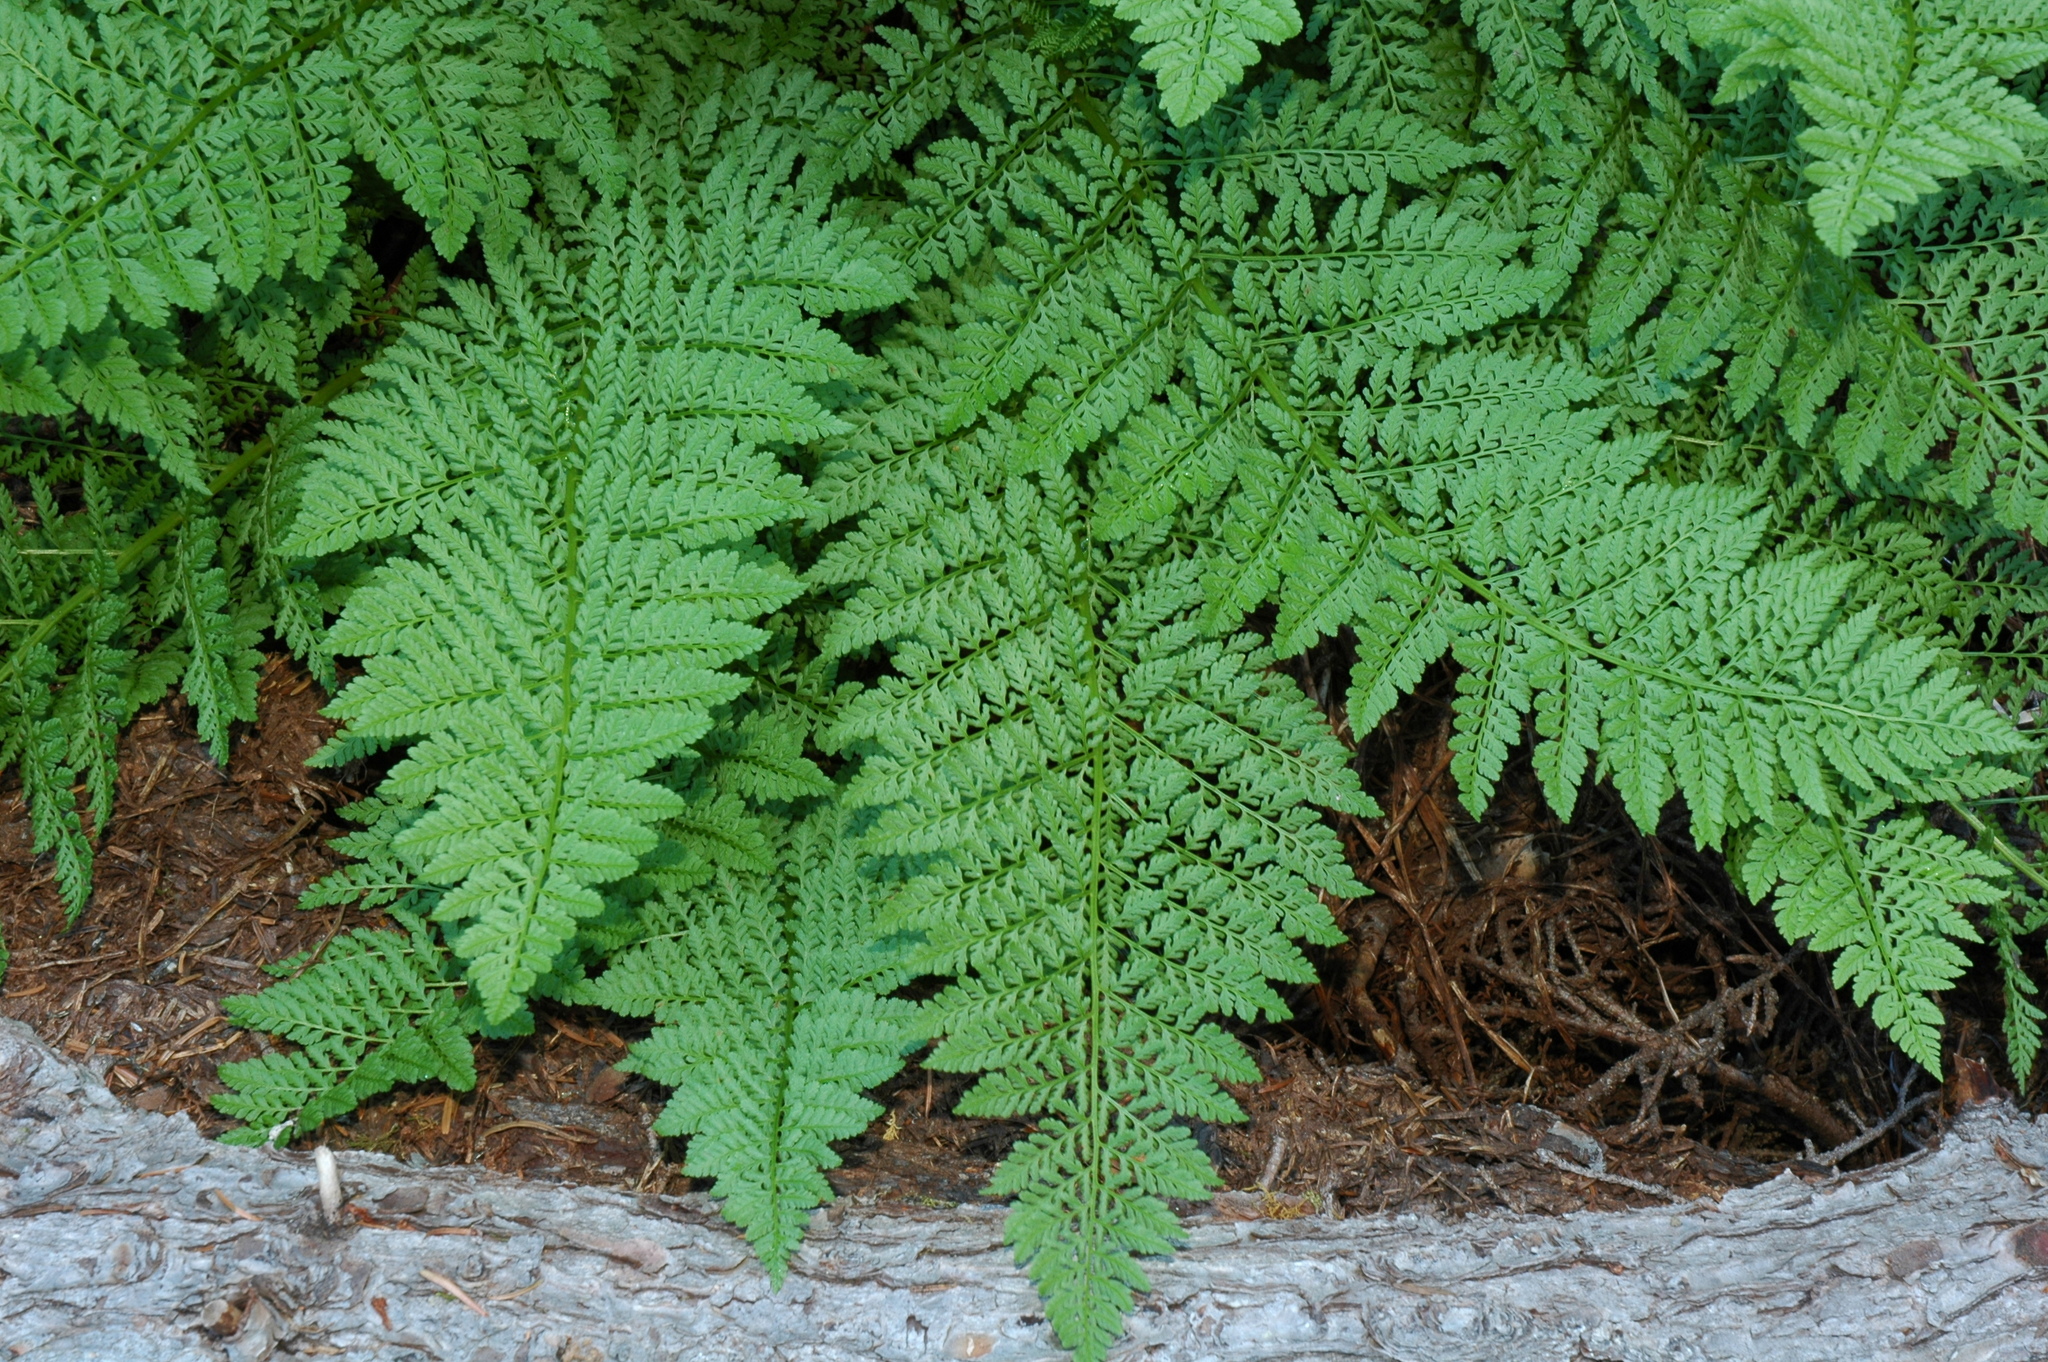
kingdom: Plantae
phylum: Tracheophyta
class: Polypodiopsida
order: Polypodiales
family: Athyriaceae
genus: Athyrium
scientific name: Athyrium americanum
